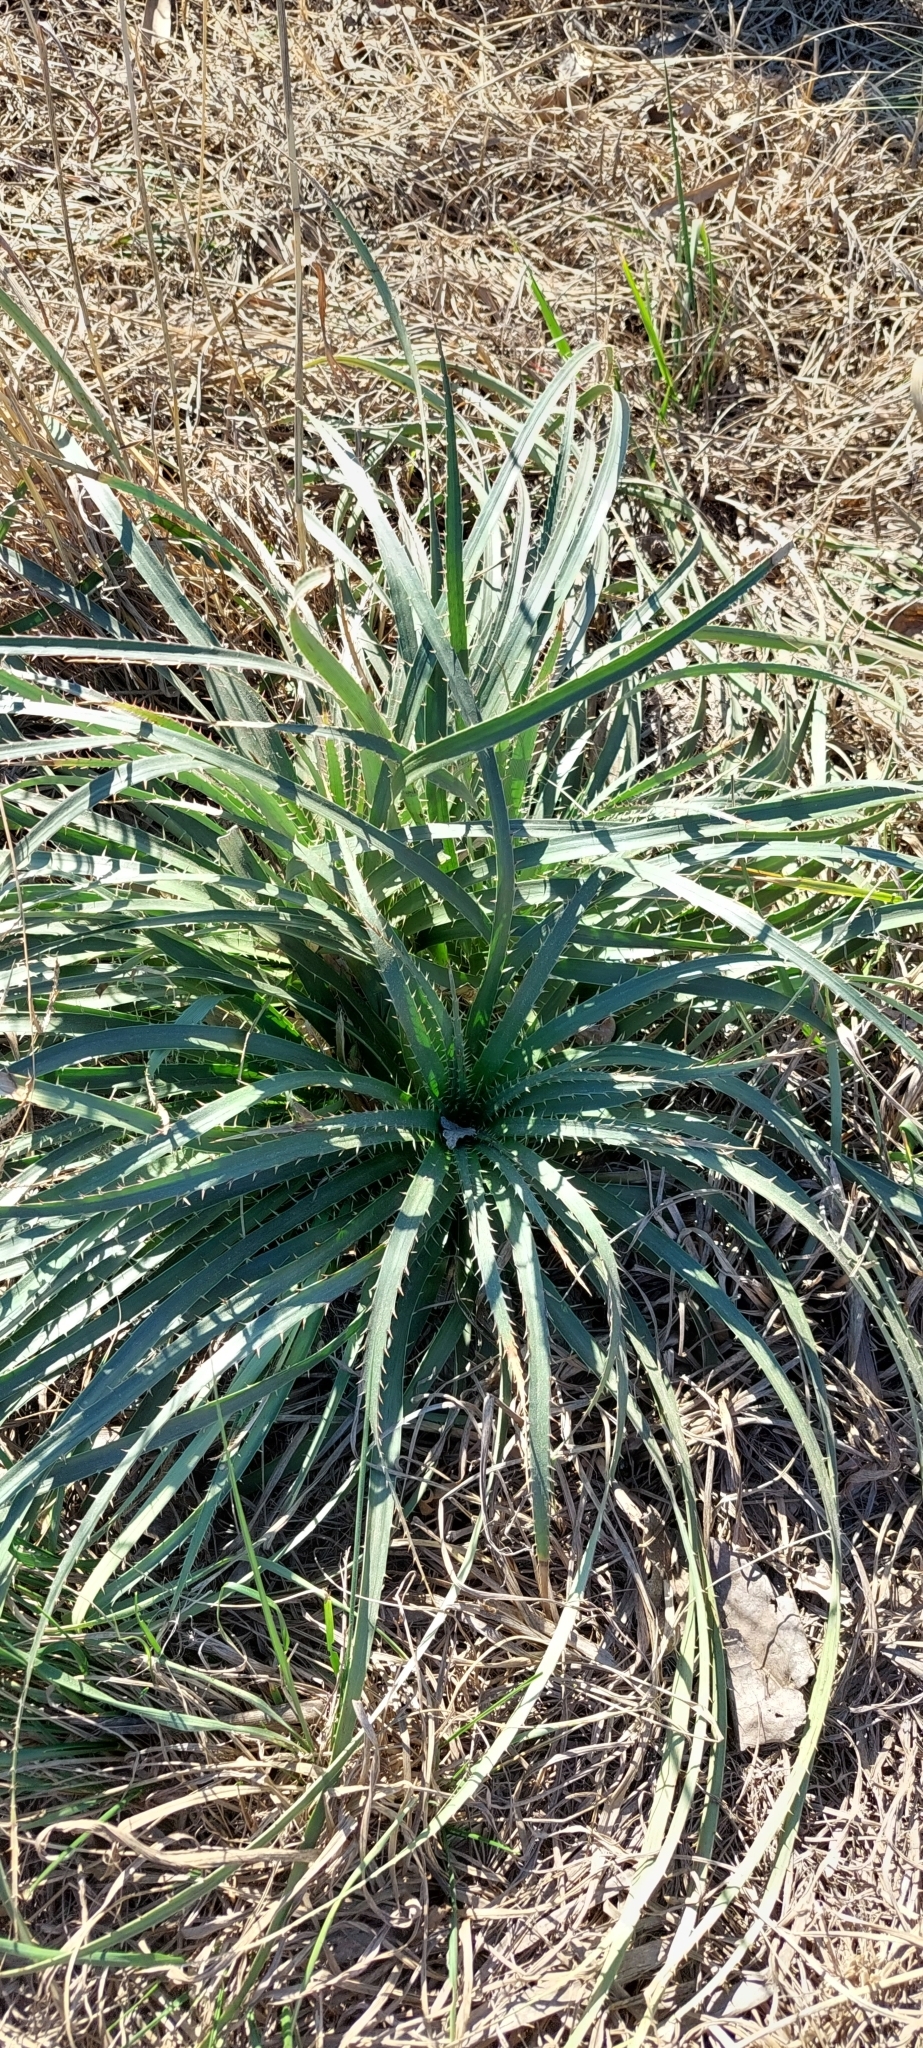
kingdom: Plantae
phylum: Tracheophyta
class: Magnoliopsida
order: Apiales
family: Apiaceae
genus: Eryngium
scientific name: Eryngium humboldtii
